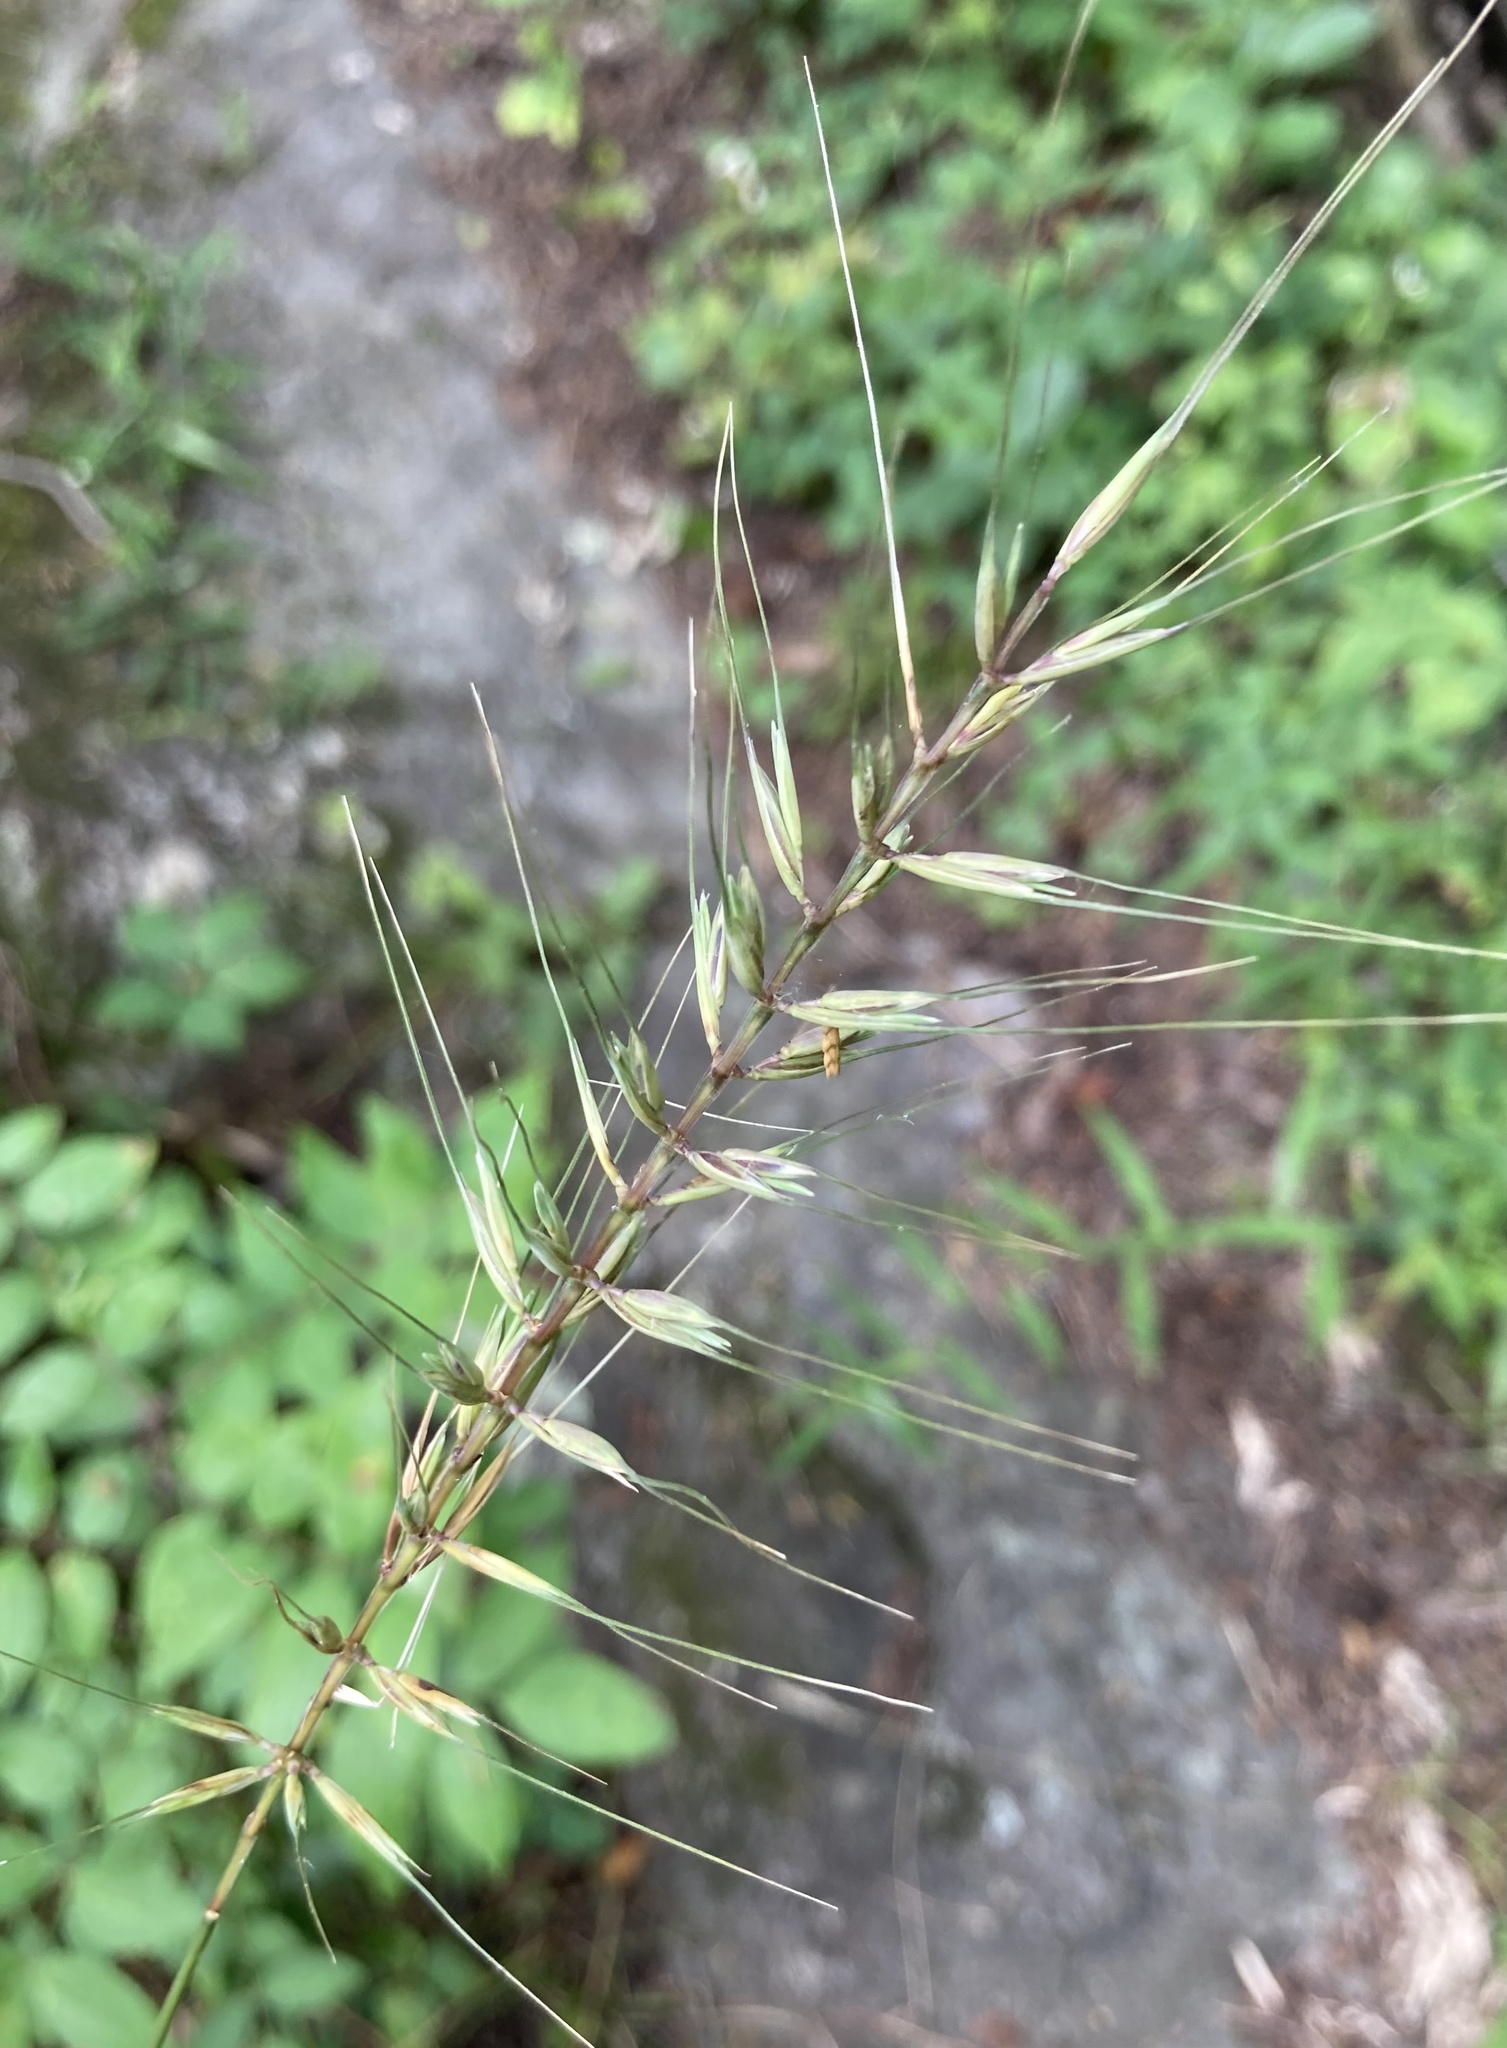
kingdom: Plantae
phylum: Tracheophyta
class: Liliopsida
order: Poales
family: Poaceae
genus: Elymus
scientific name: Elymus hystrix
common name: Bottlebrush grass
